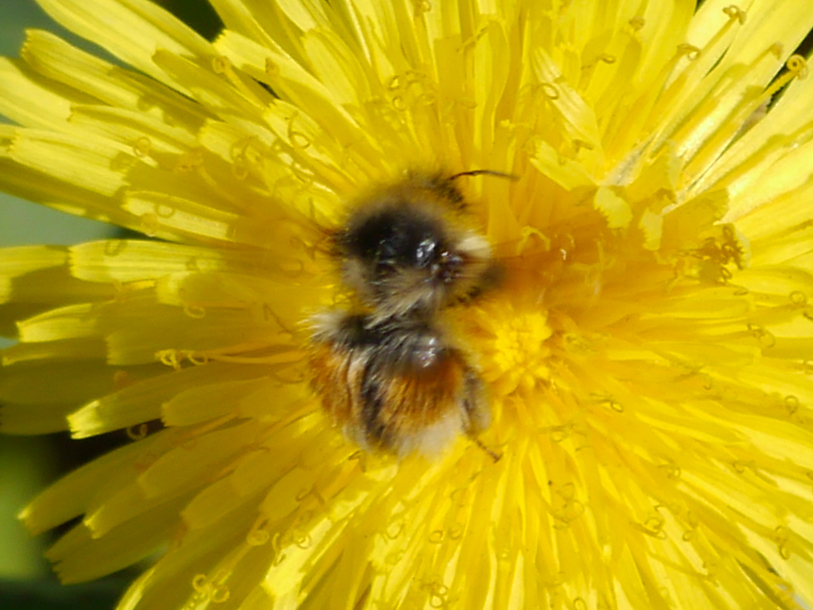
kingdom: Animalia
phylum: Arthropoda
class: Insecta
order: Hymenoptera
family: Apidae
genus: Bombus
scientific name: Bombus sylvicola
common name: Forest bumble bee
